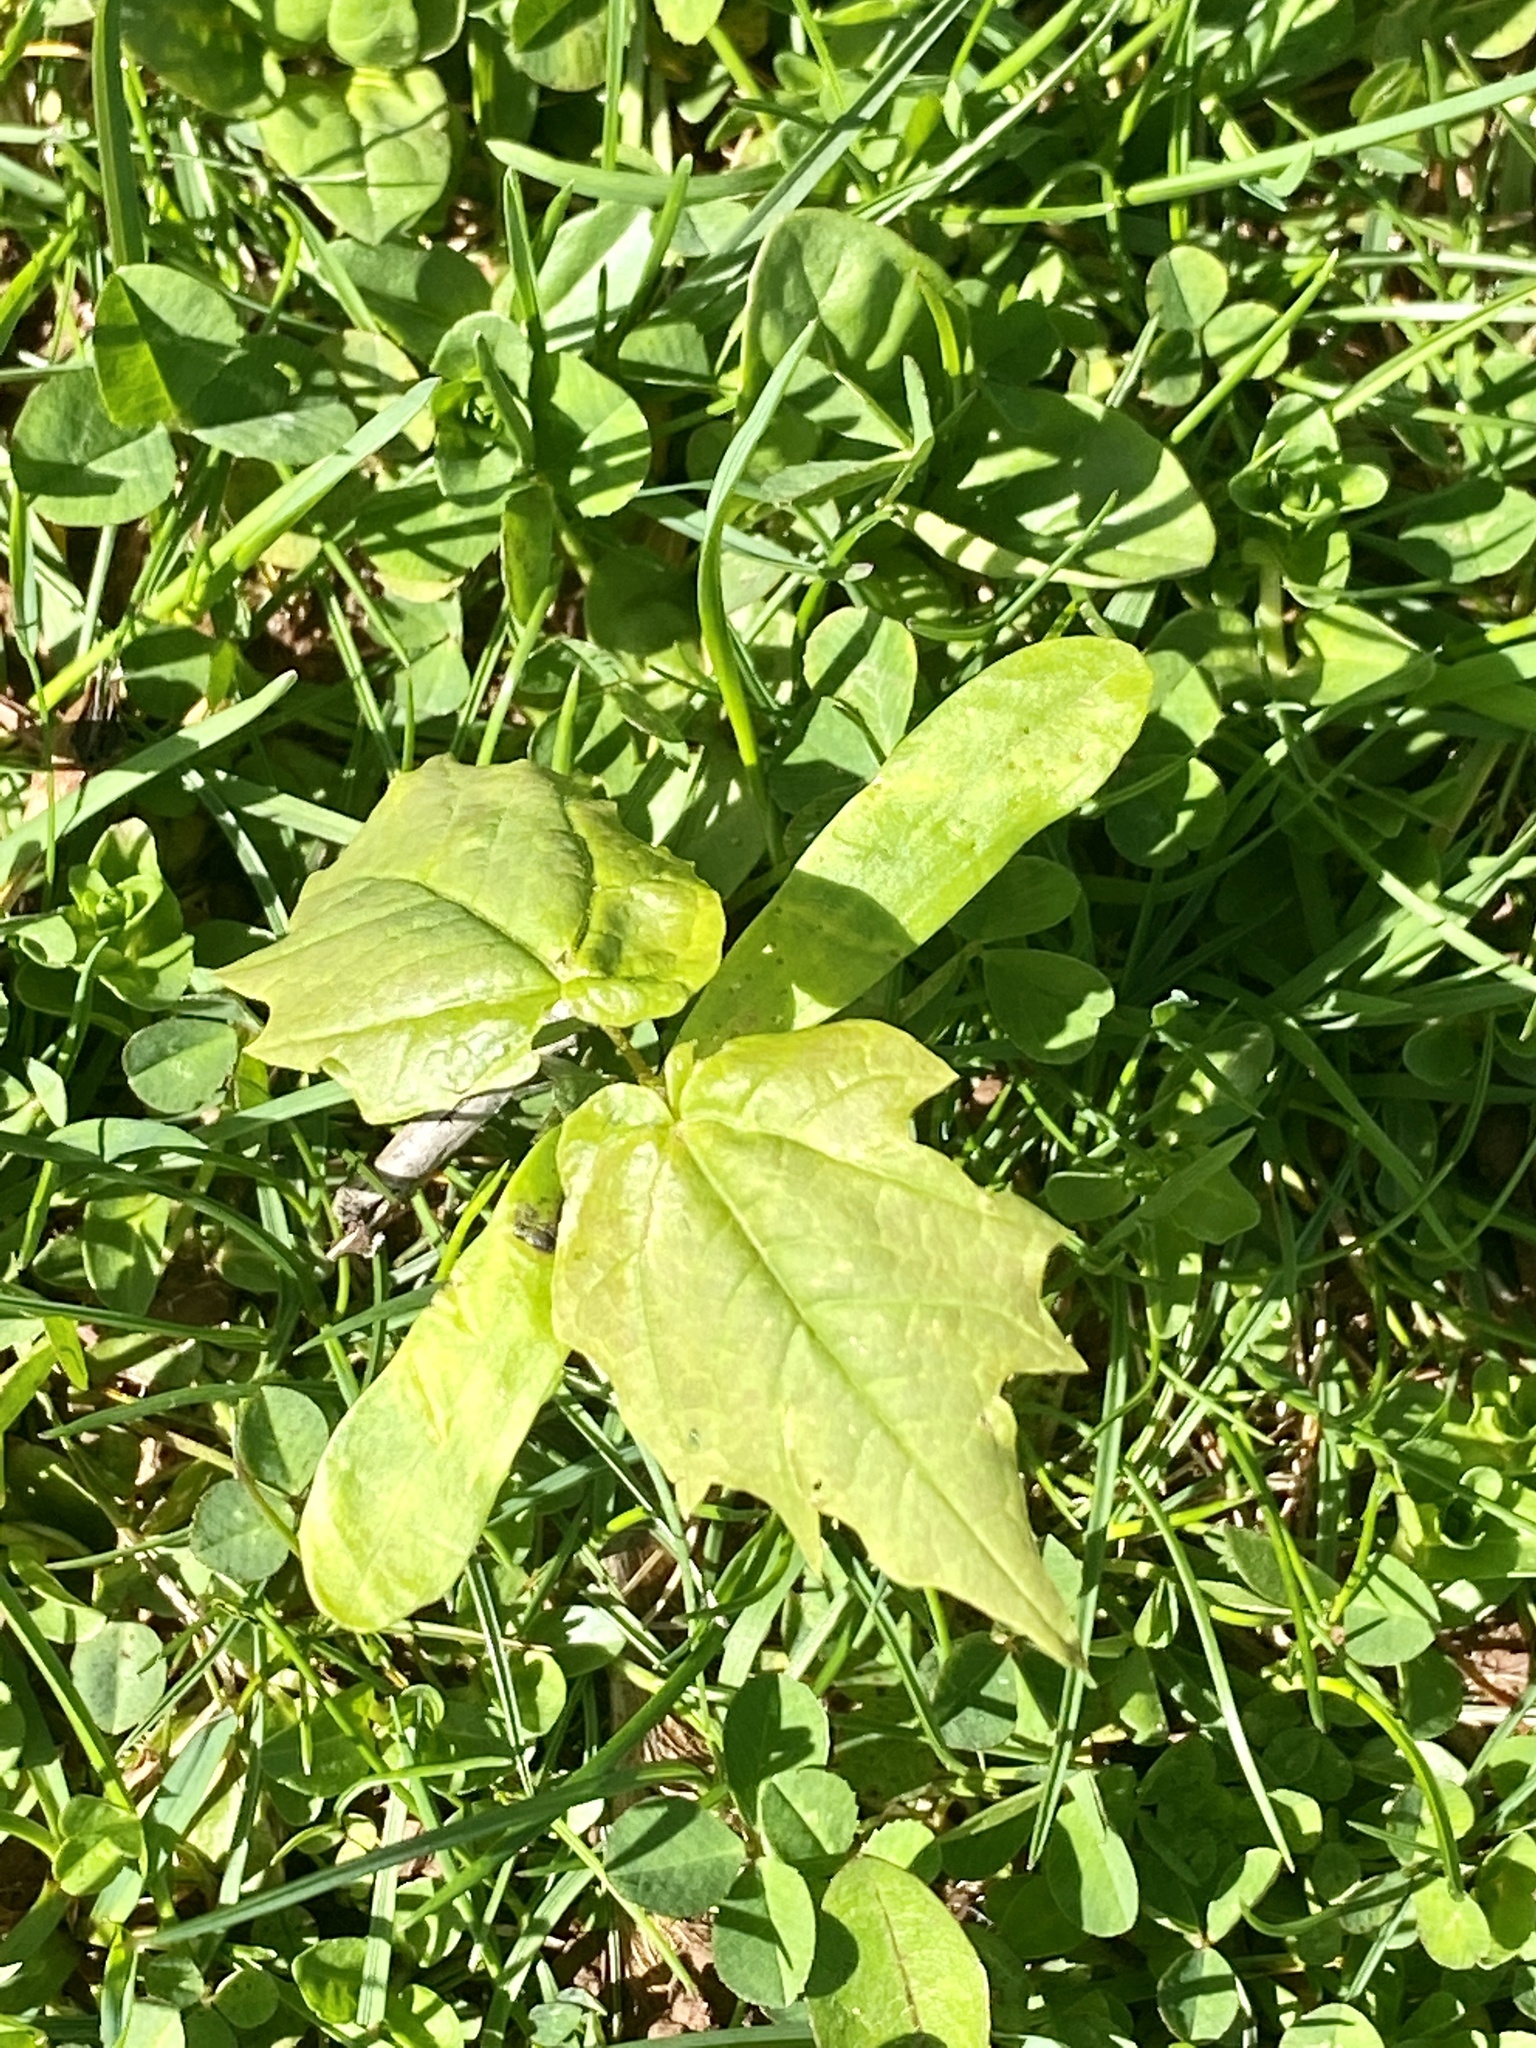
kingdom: Plantae
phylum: Tracheophyta
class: Magnoliopsida
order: Sapindales
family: Sapindaceae
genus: Acer
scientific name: Acer platanoides
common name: Norway maple
